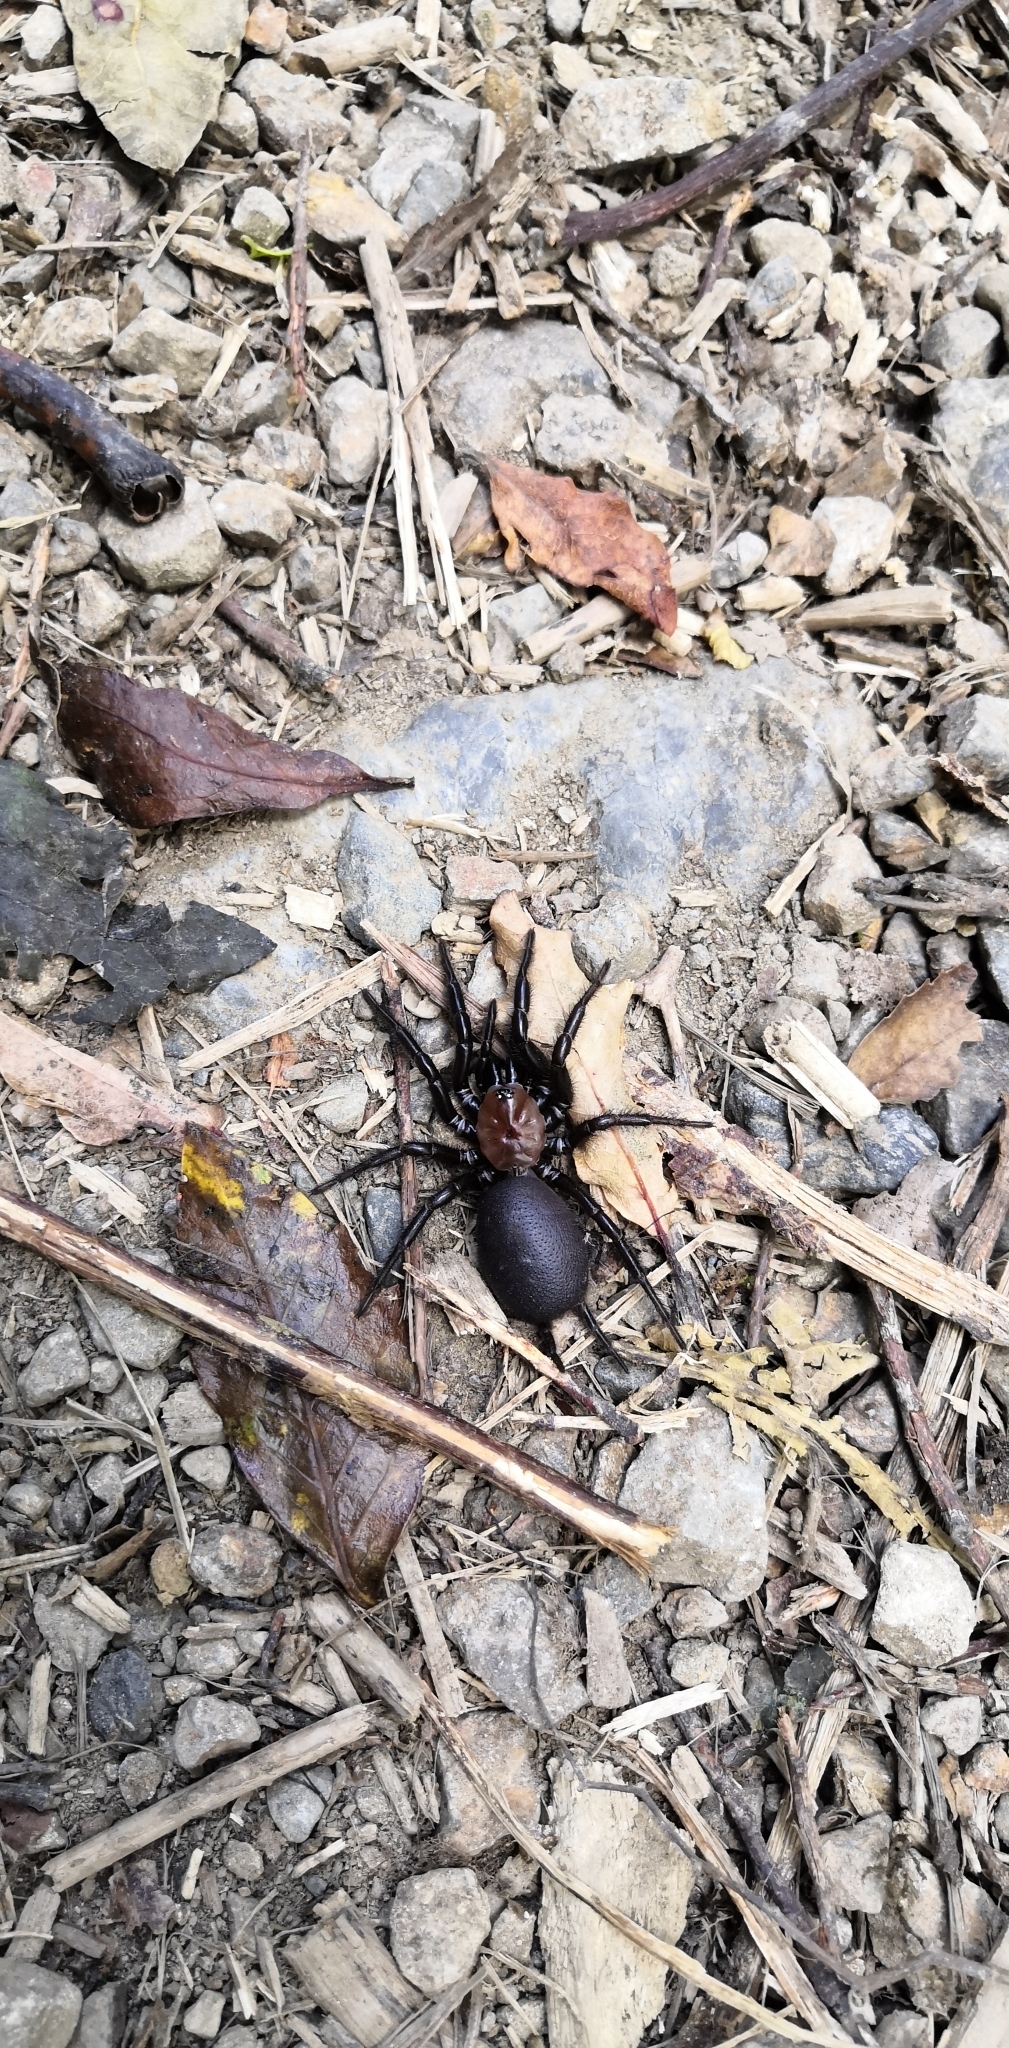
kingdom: Animalia
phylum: Arthropoda
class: Arachnida
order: Araneae
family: Porrhothelidae
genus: Porrhothele
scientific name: Porrhothele antipodiana
